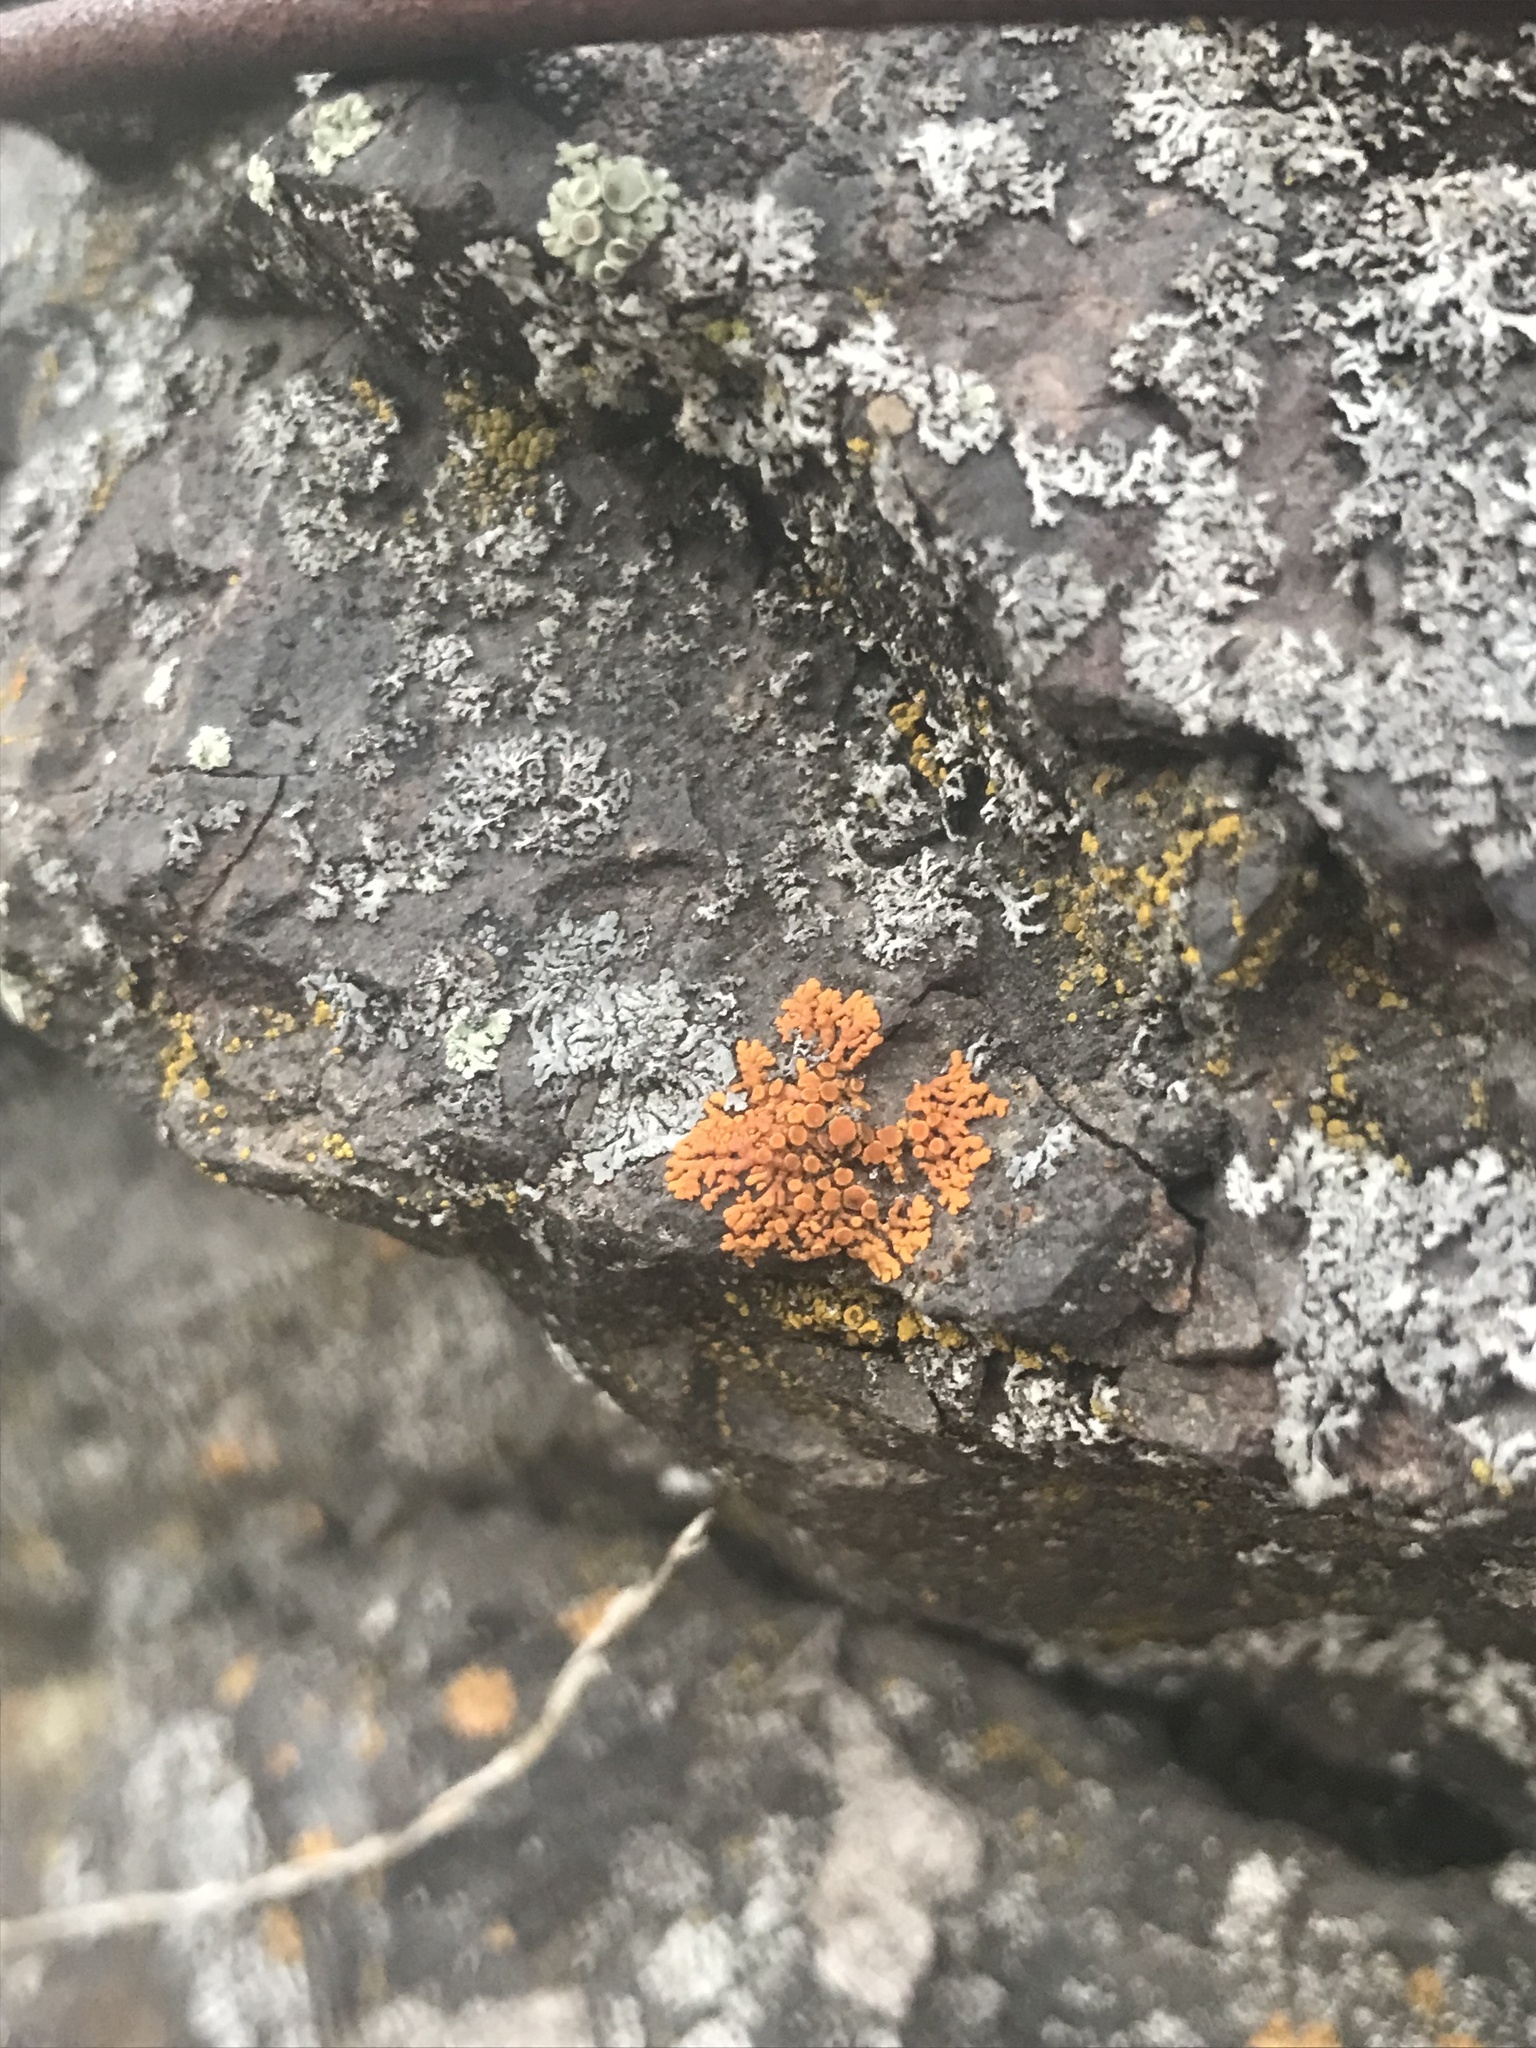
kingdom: Fungi
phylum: Ascomycota
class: Lecanoromycetes
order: Teloschistales
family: Teloschistaceae
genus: Xanthoria
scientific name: Xanthoria elegans
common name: Elegant sunburst lichen
